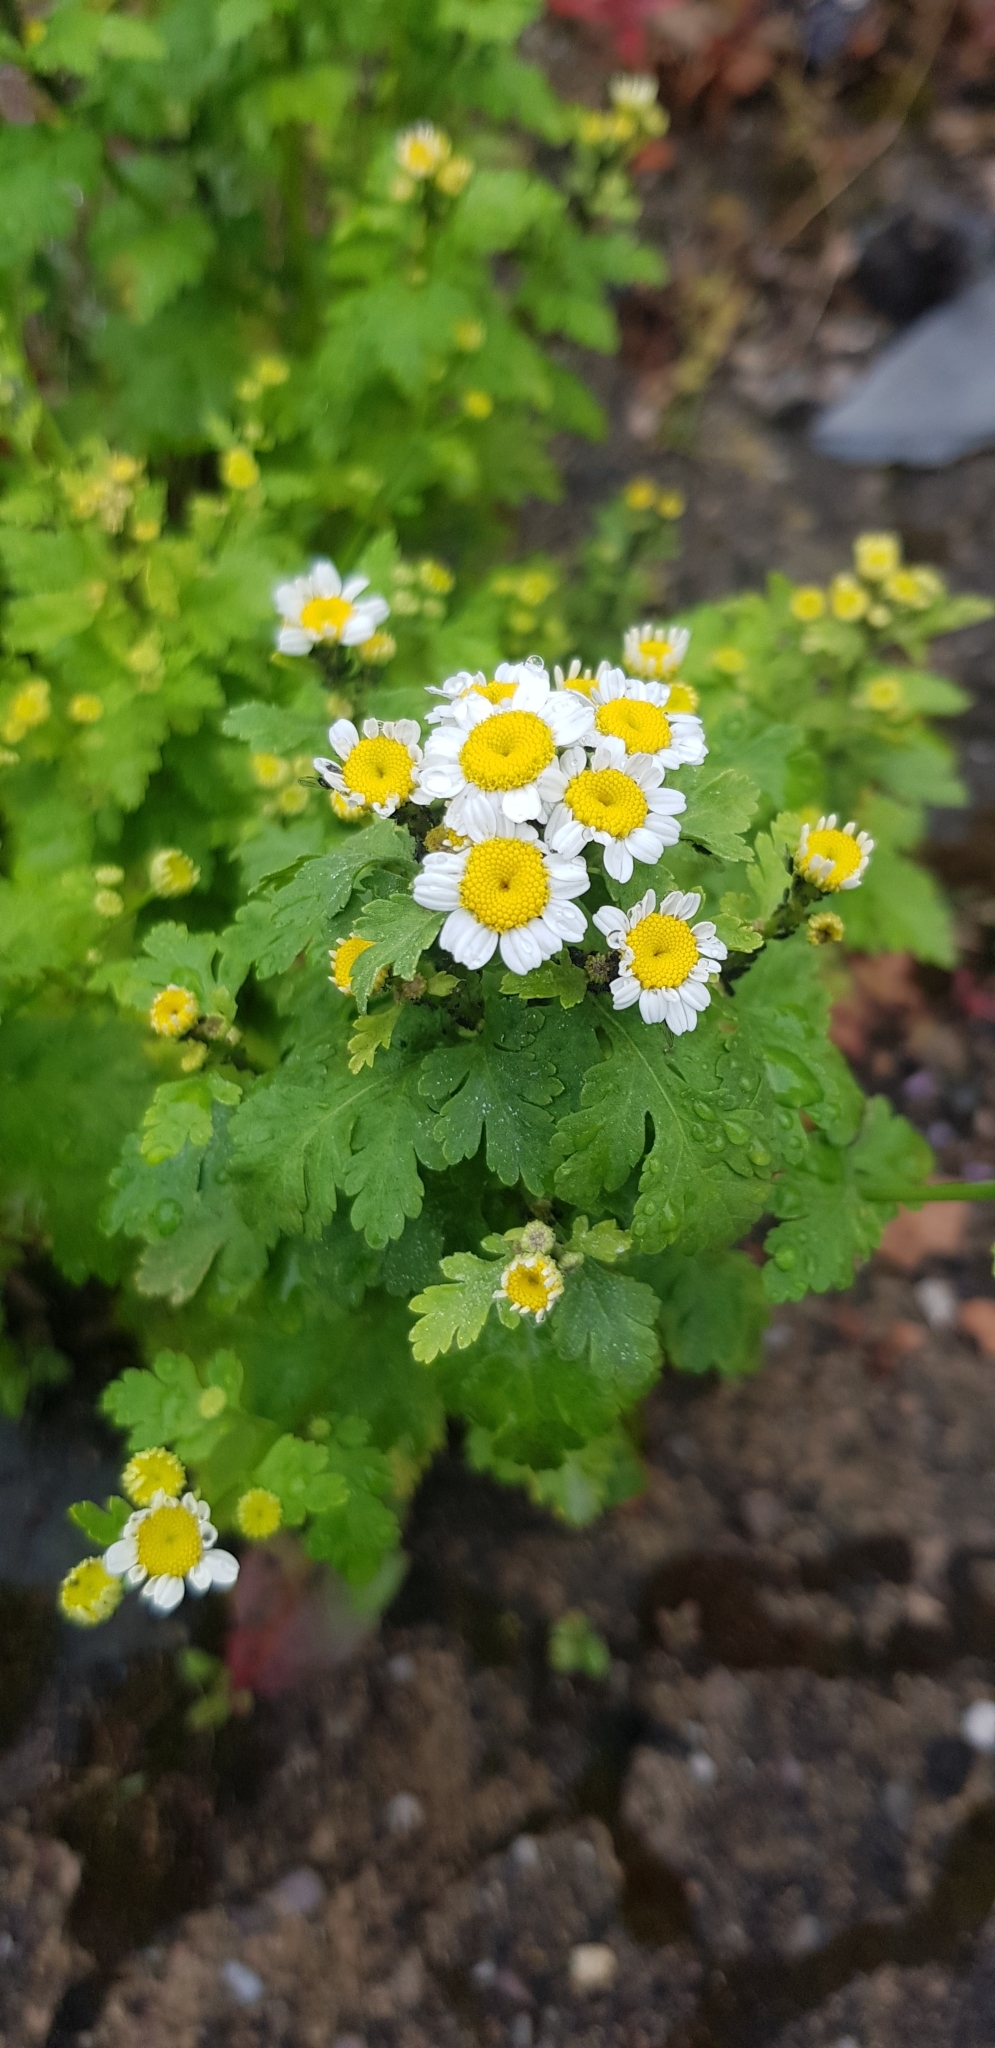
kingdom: Plantae
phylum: Tracheophyta
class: Magnoliopsida
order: Asterales
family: Asteraceae
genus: Tanacetum
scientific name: Tanacetum parthenium
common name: Feverfew
